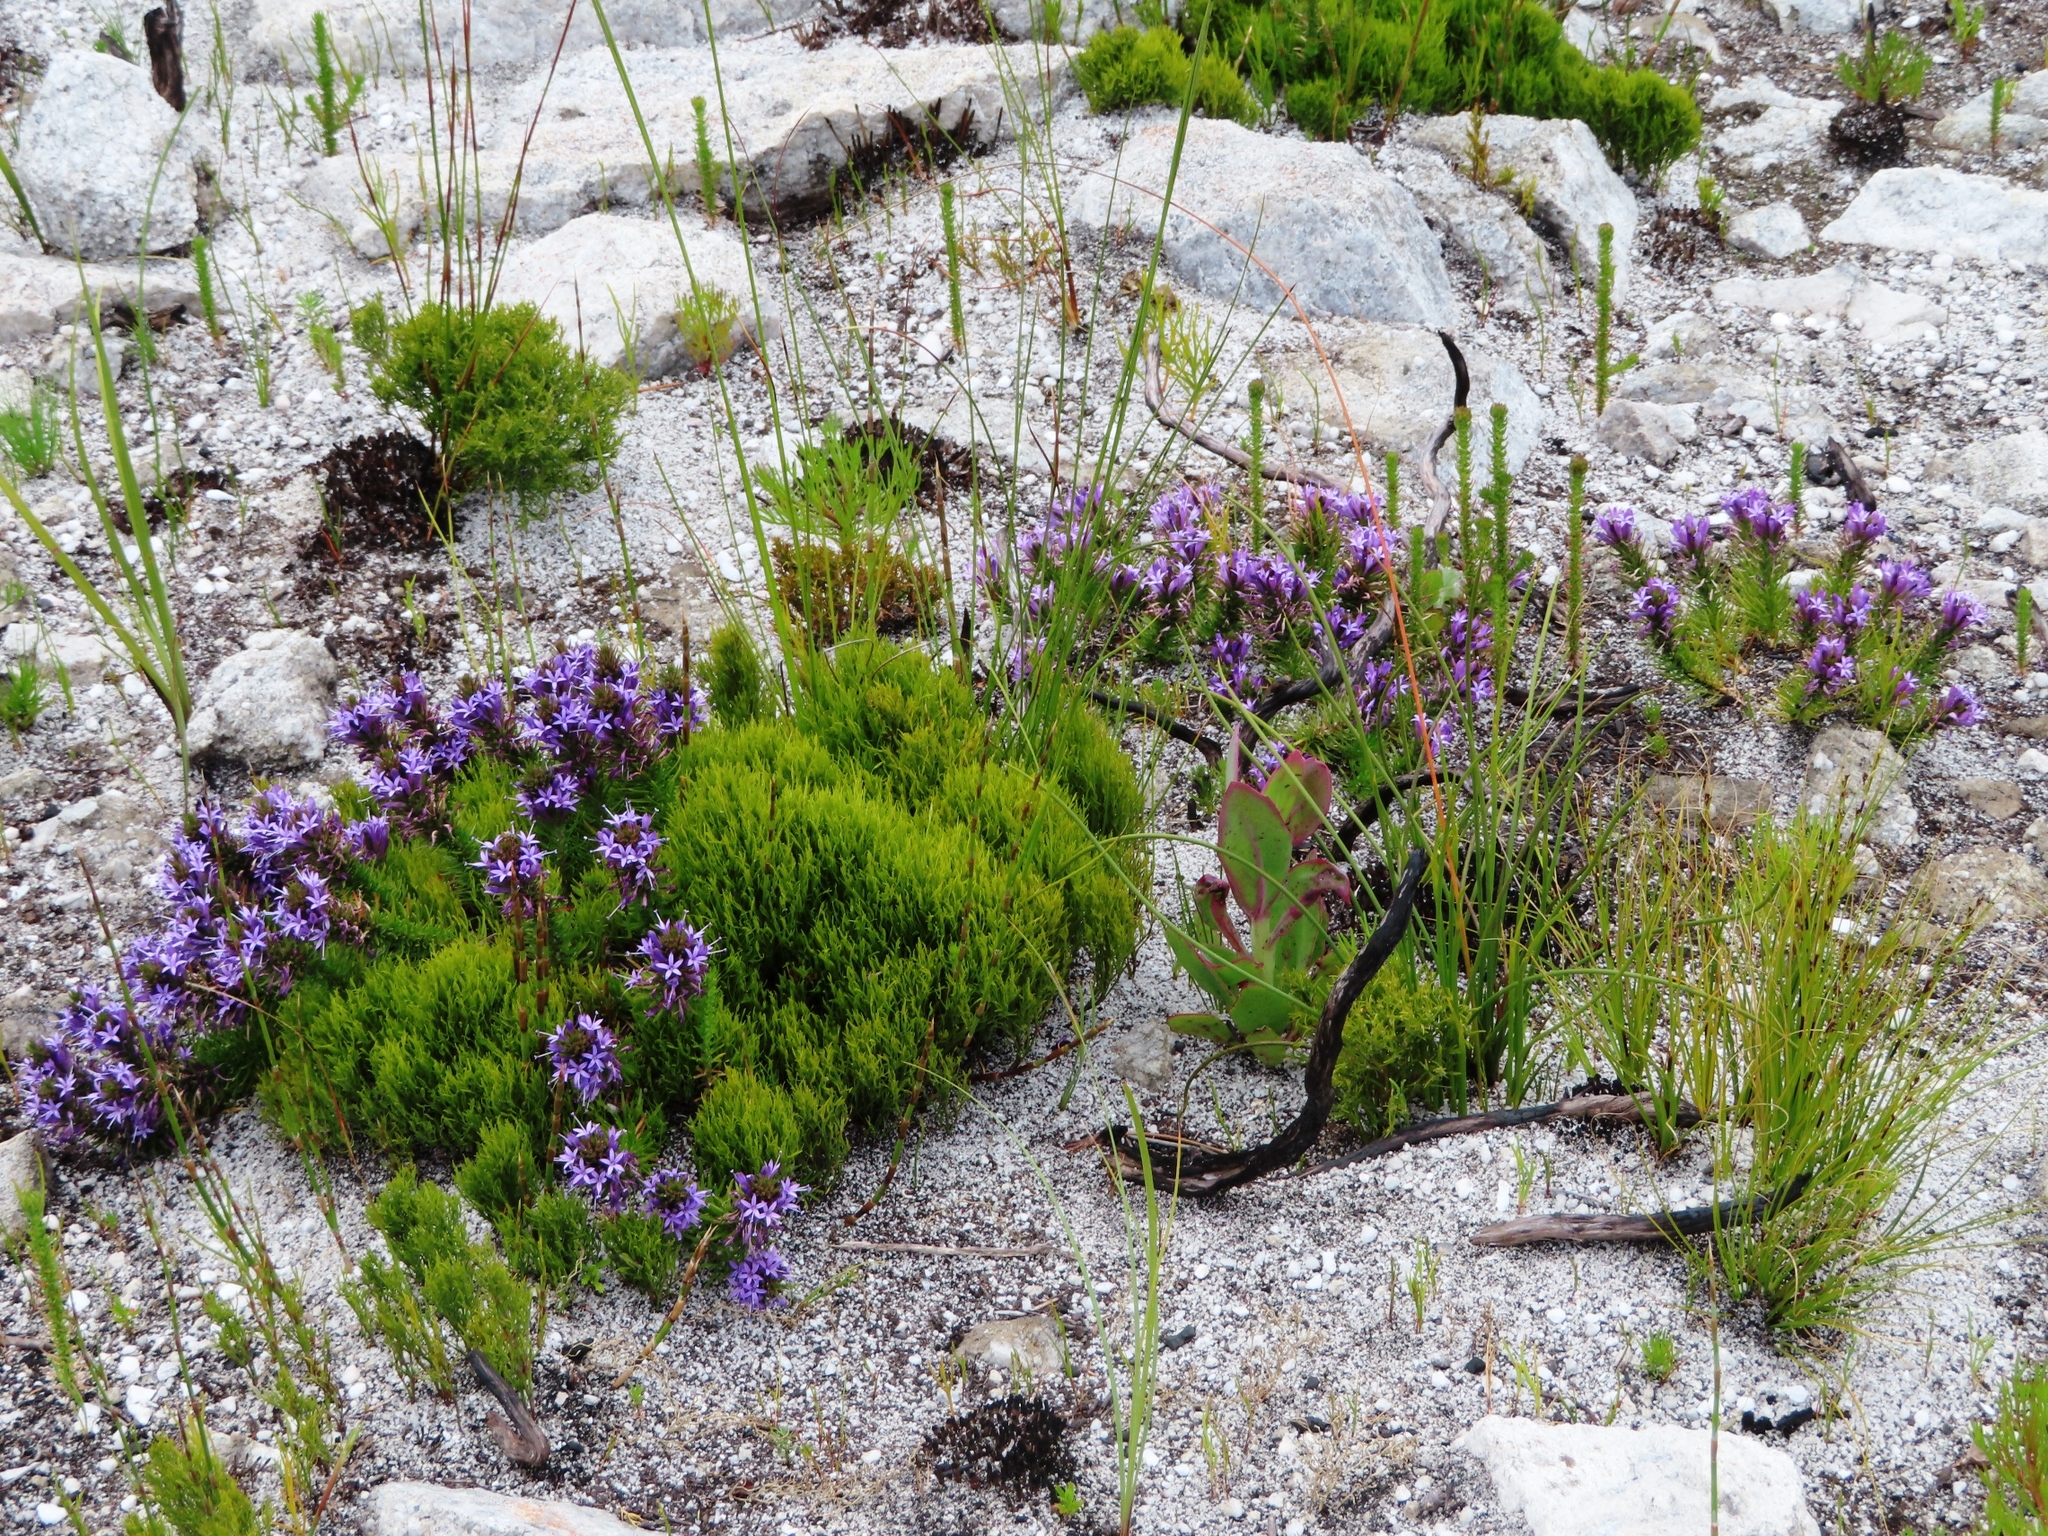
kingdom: Plantae
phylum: Tracheophyta
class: Magnoliopsida
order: Asterales
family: Campanulaceae
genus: Merciera
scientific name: Merciera azurea
